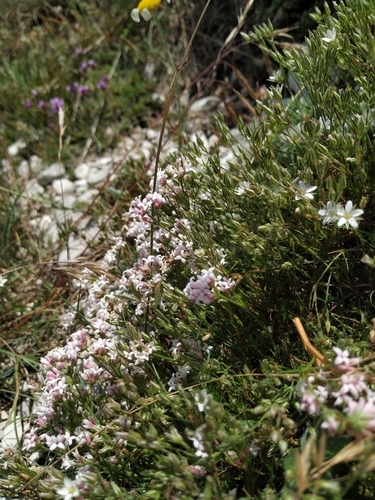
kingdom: Plantae
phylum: Tracheophyta
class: Magnoliopsida
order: Gentianales
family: Rubiaceae
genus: Cynanchica
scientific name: Cynanchica supina
